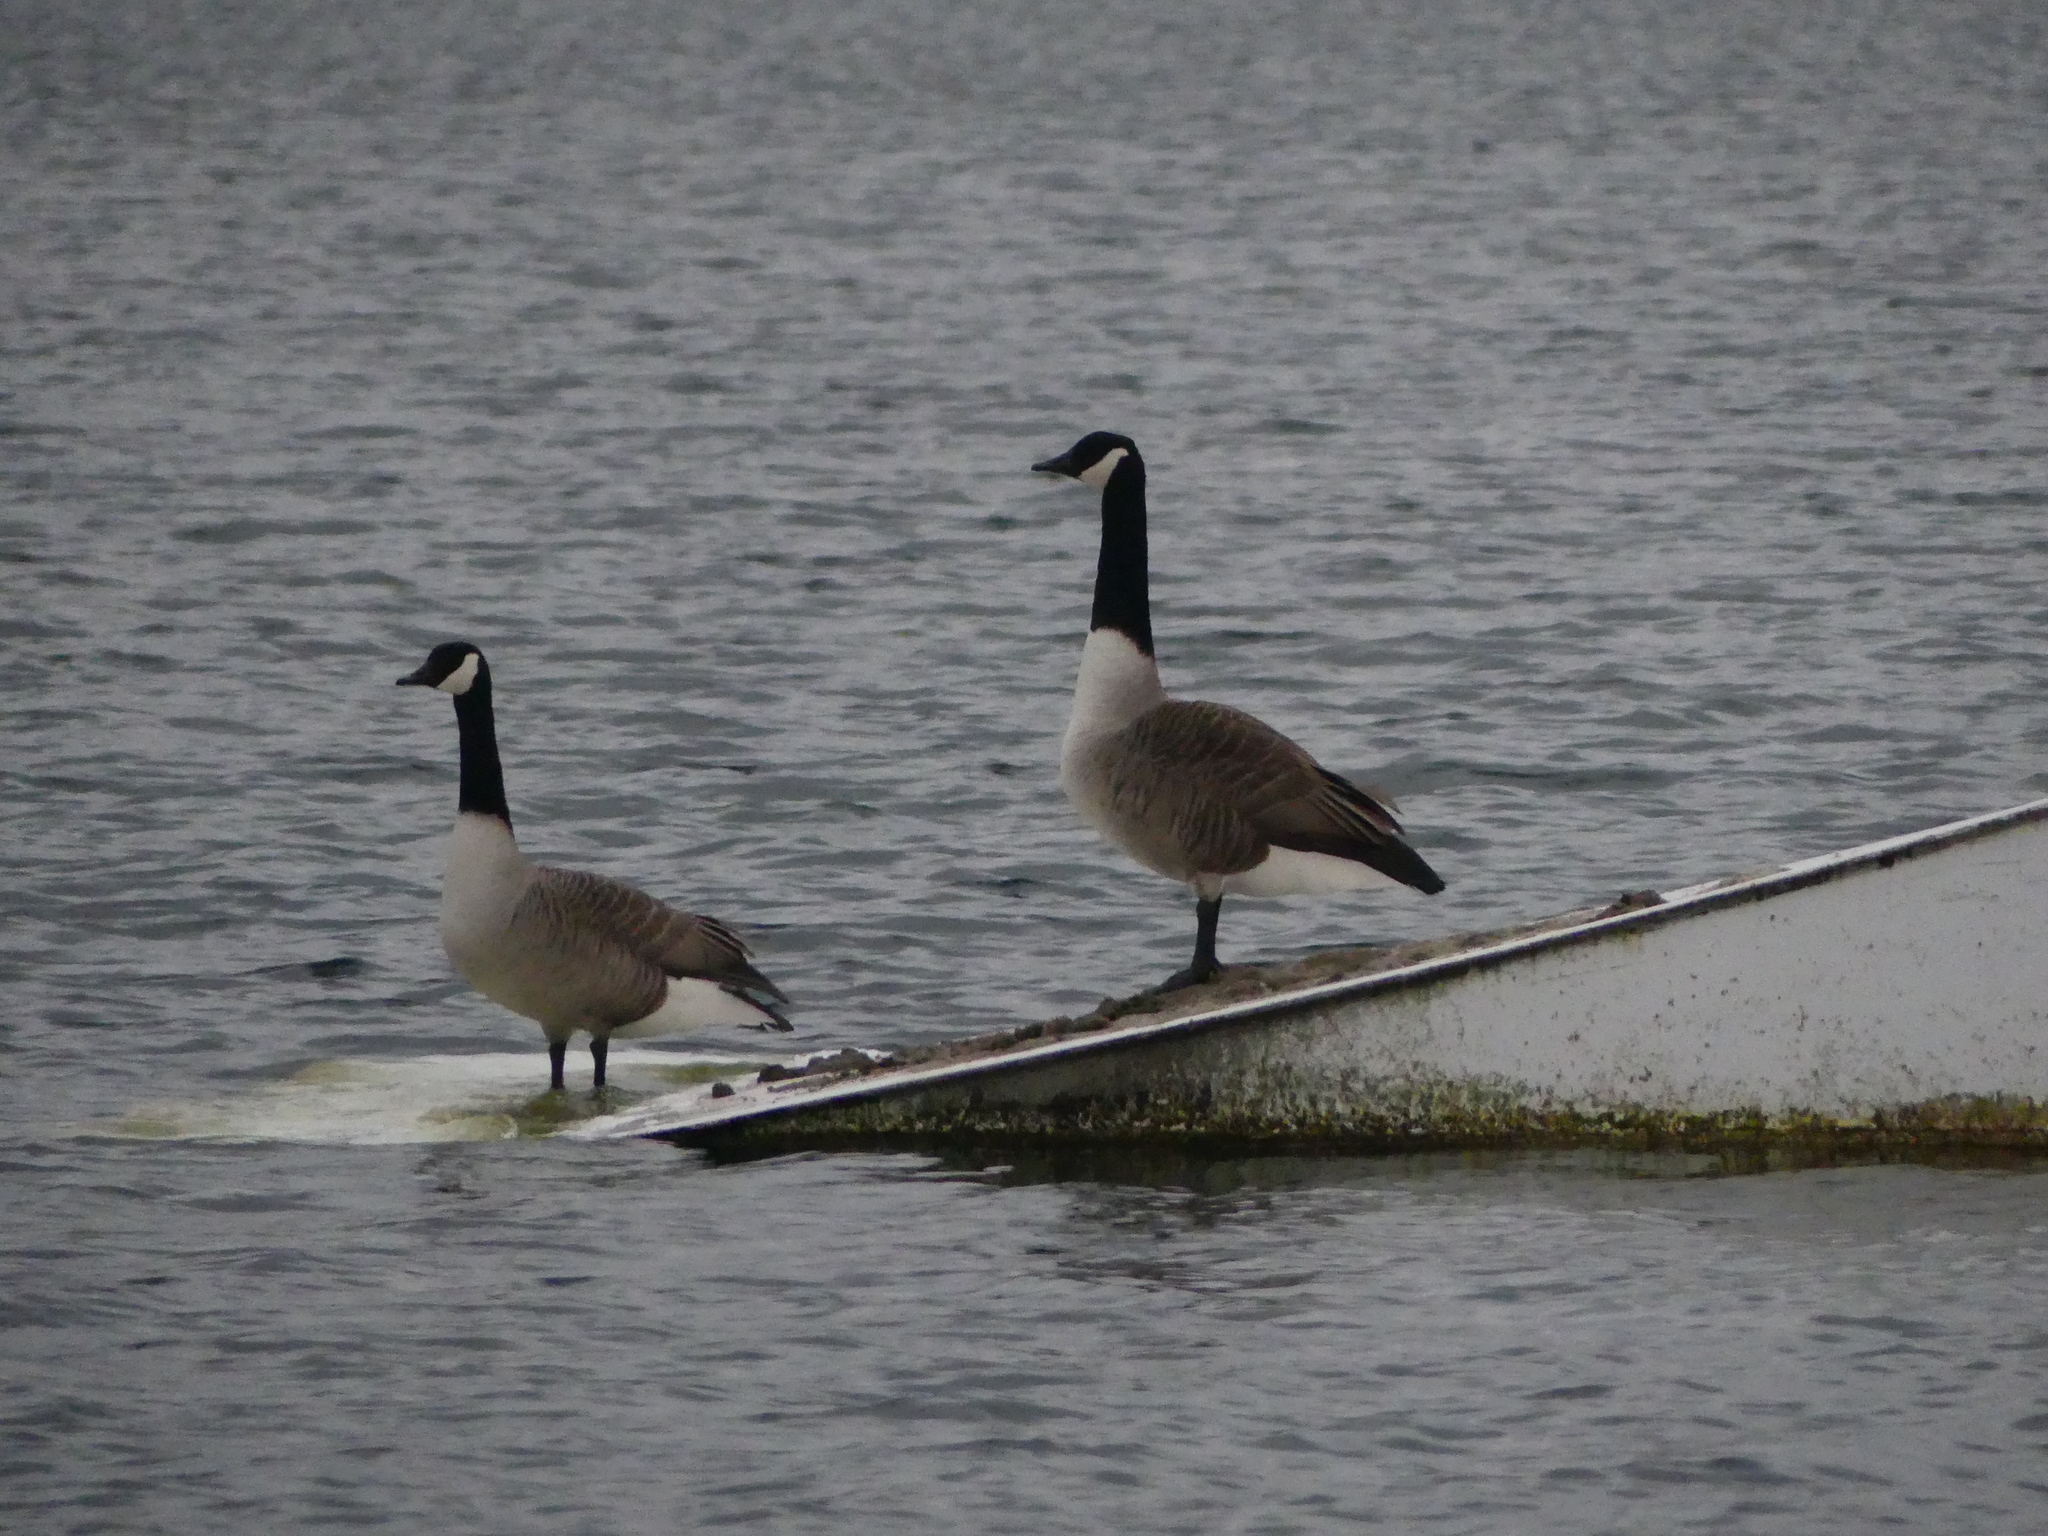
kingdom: Animalia
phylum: Chordata
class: Aves
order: Anseriformes
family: Anatidae
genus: Branta
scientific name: Branta canadensis
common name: Canada goose
